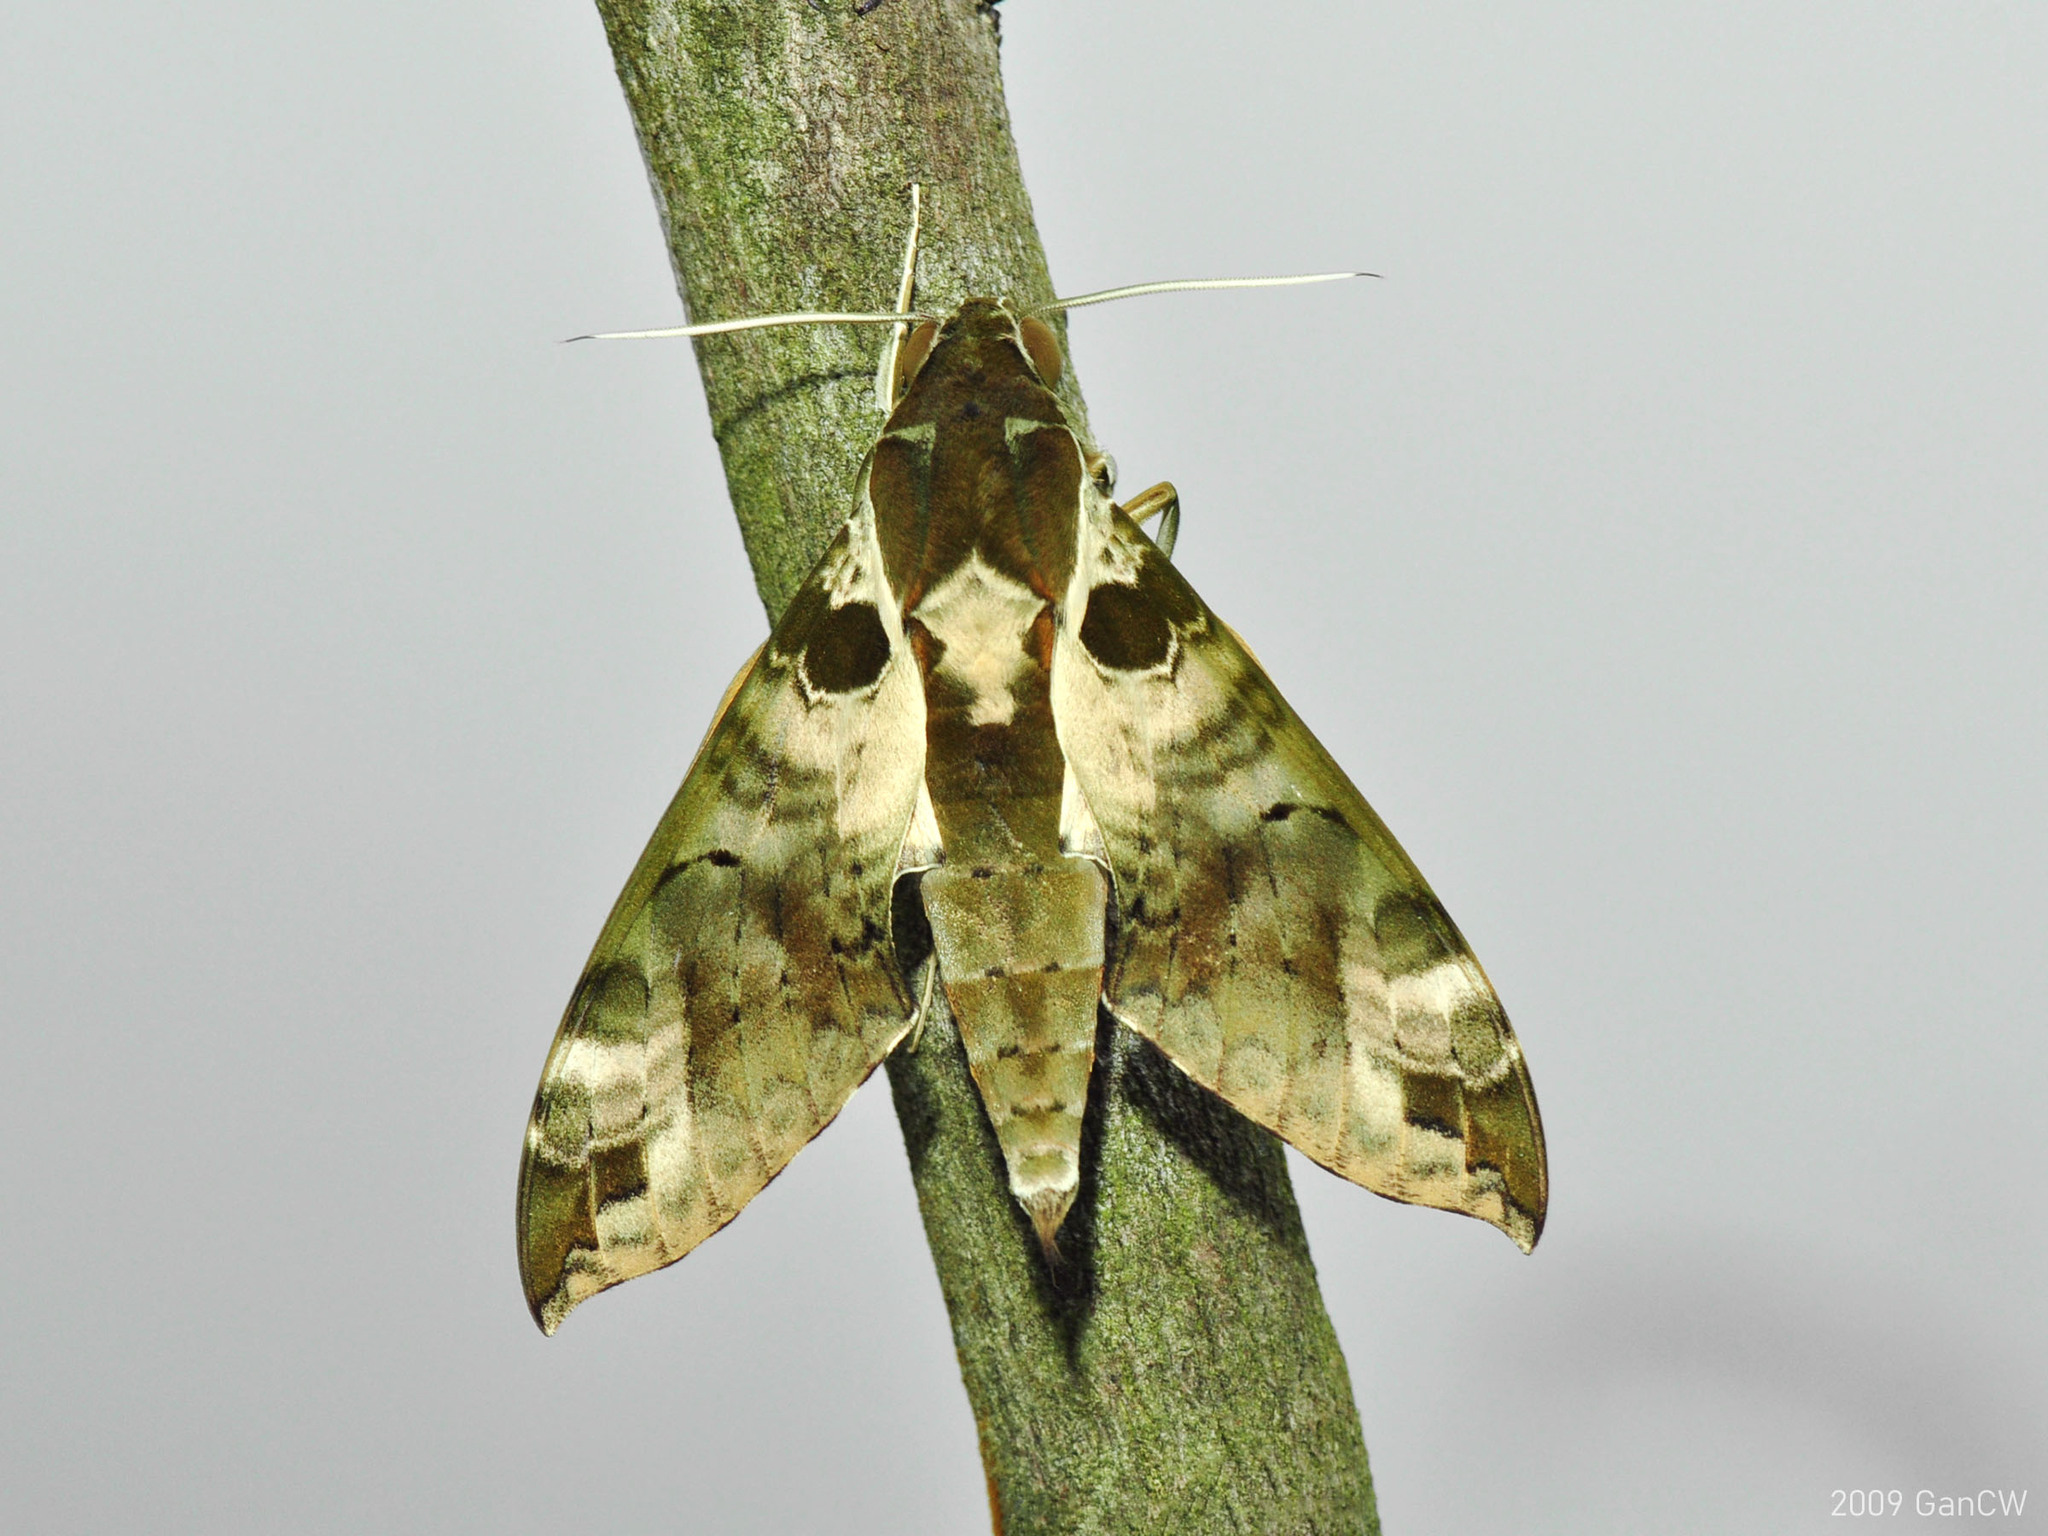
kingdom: Animalia
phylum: Arthropoda
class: Insecta
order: Lepidoptera
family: Sphingidae
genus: Cechenena
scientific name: Cechenena helops
